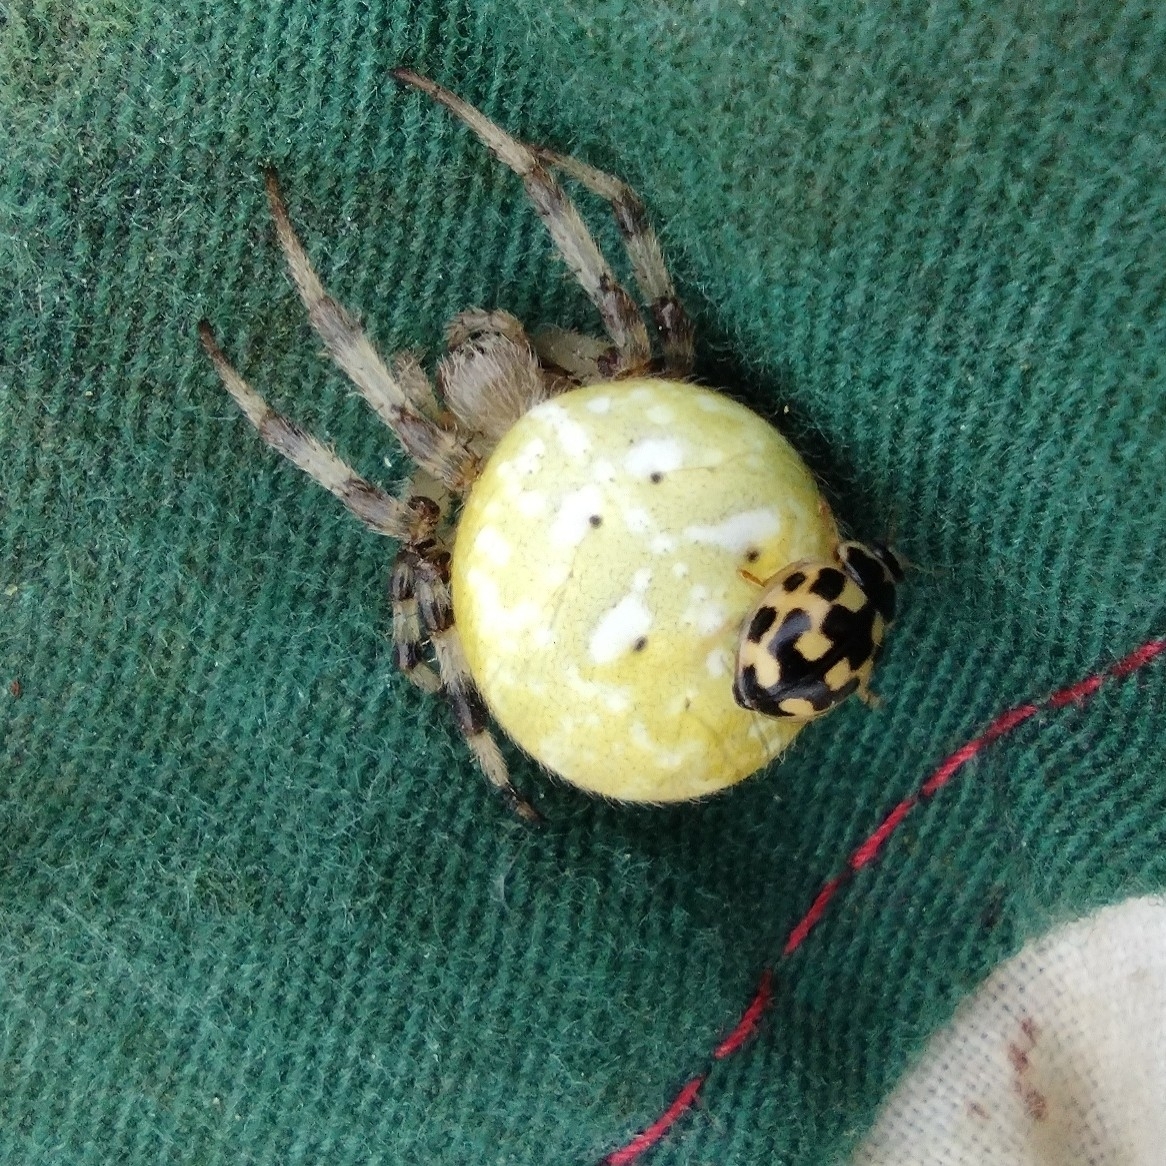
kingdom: Animalia
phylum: Arthropoda
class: Arachnida
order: Araneae
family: Araneidae
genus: Araneus
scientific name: Araneus quadratus
